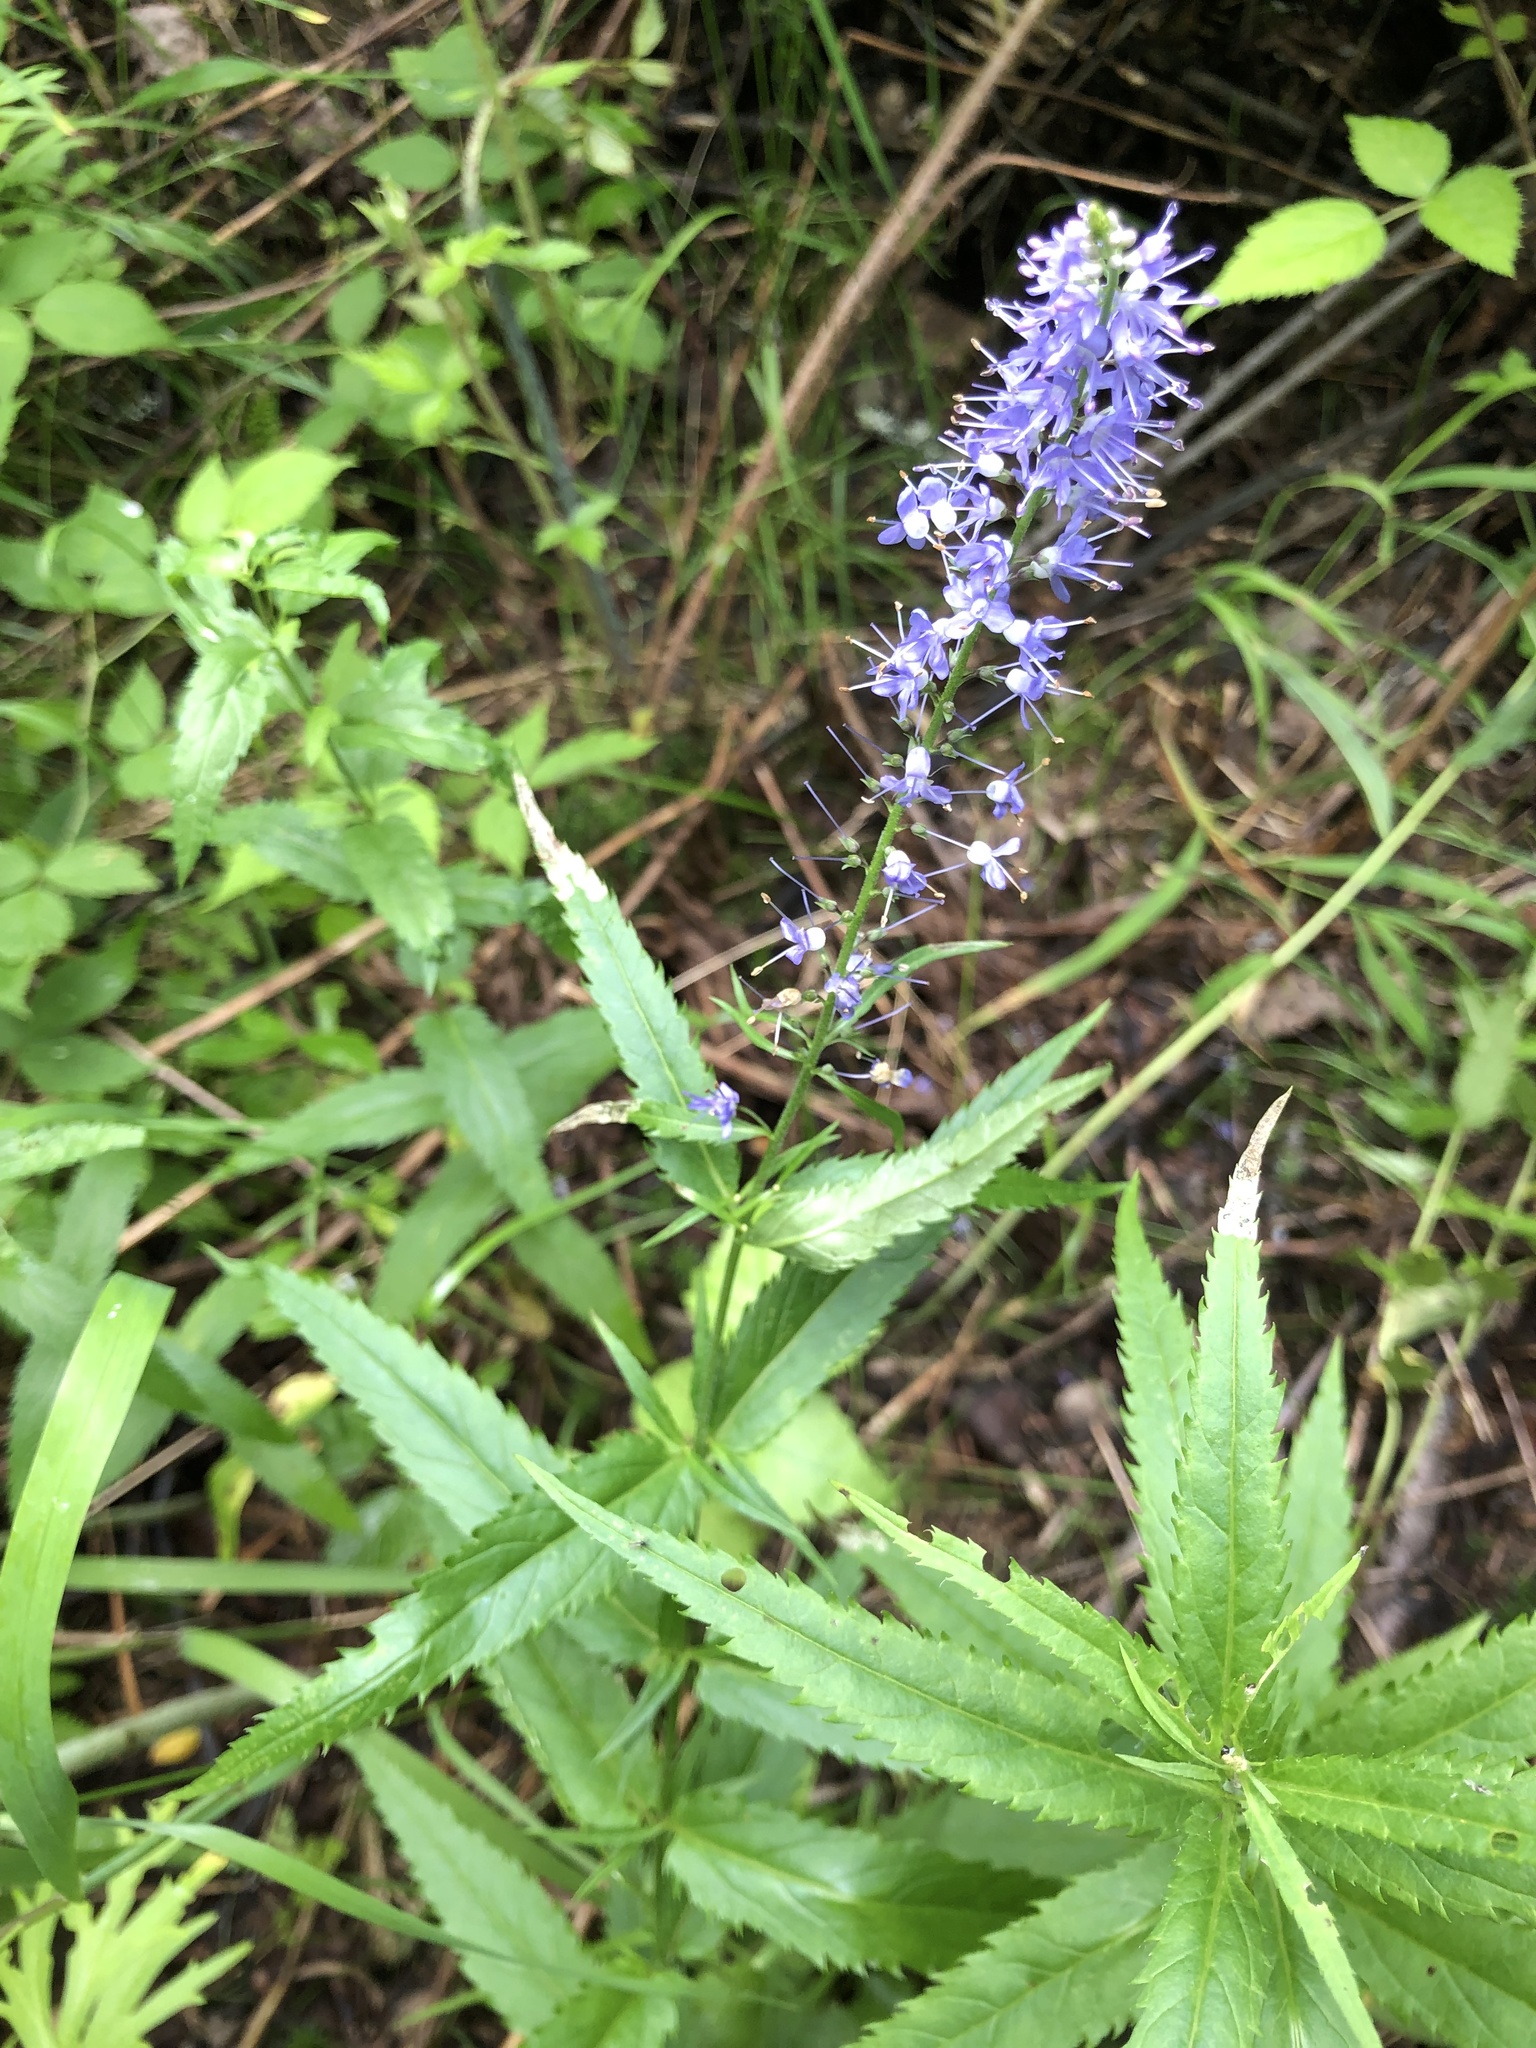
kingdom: Plantae
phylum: Tracheophyta
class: Magnoliopsida
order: Lamiales
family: Plantaginaceae
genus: Veronica
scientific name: Veronica longifolia
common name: Garden speedwell
